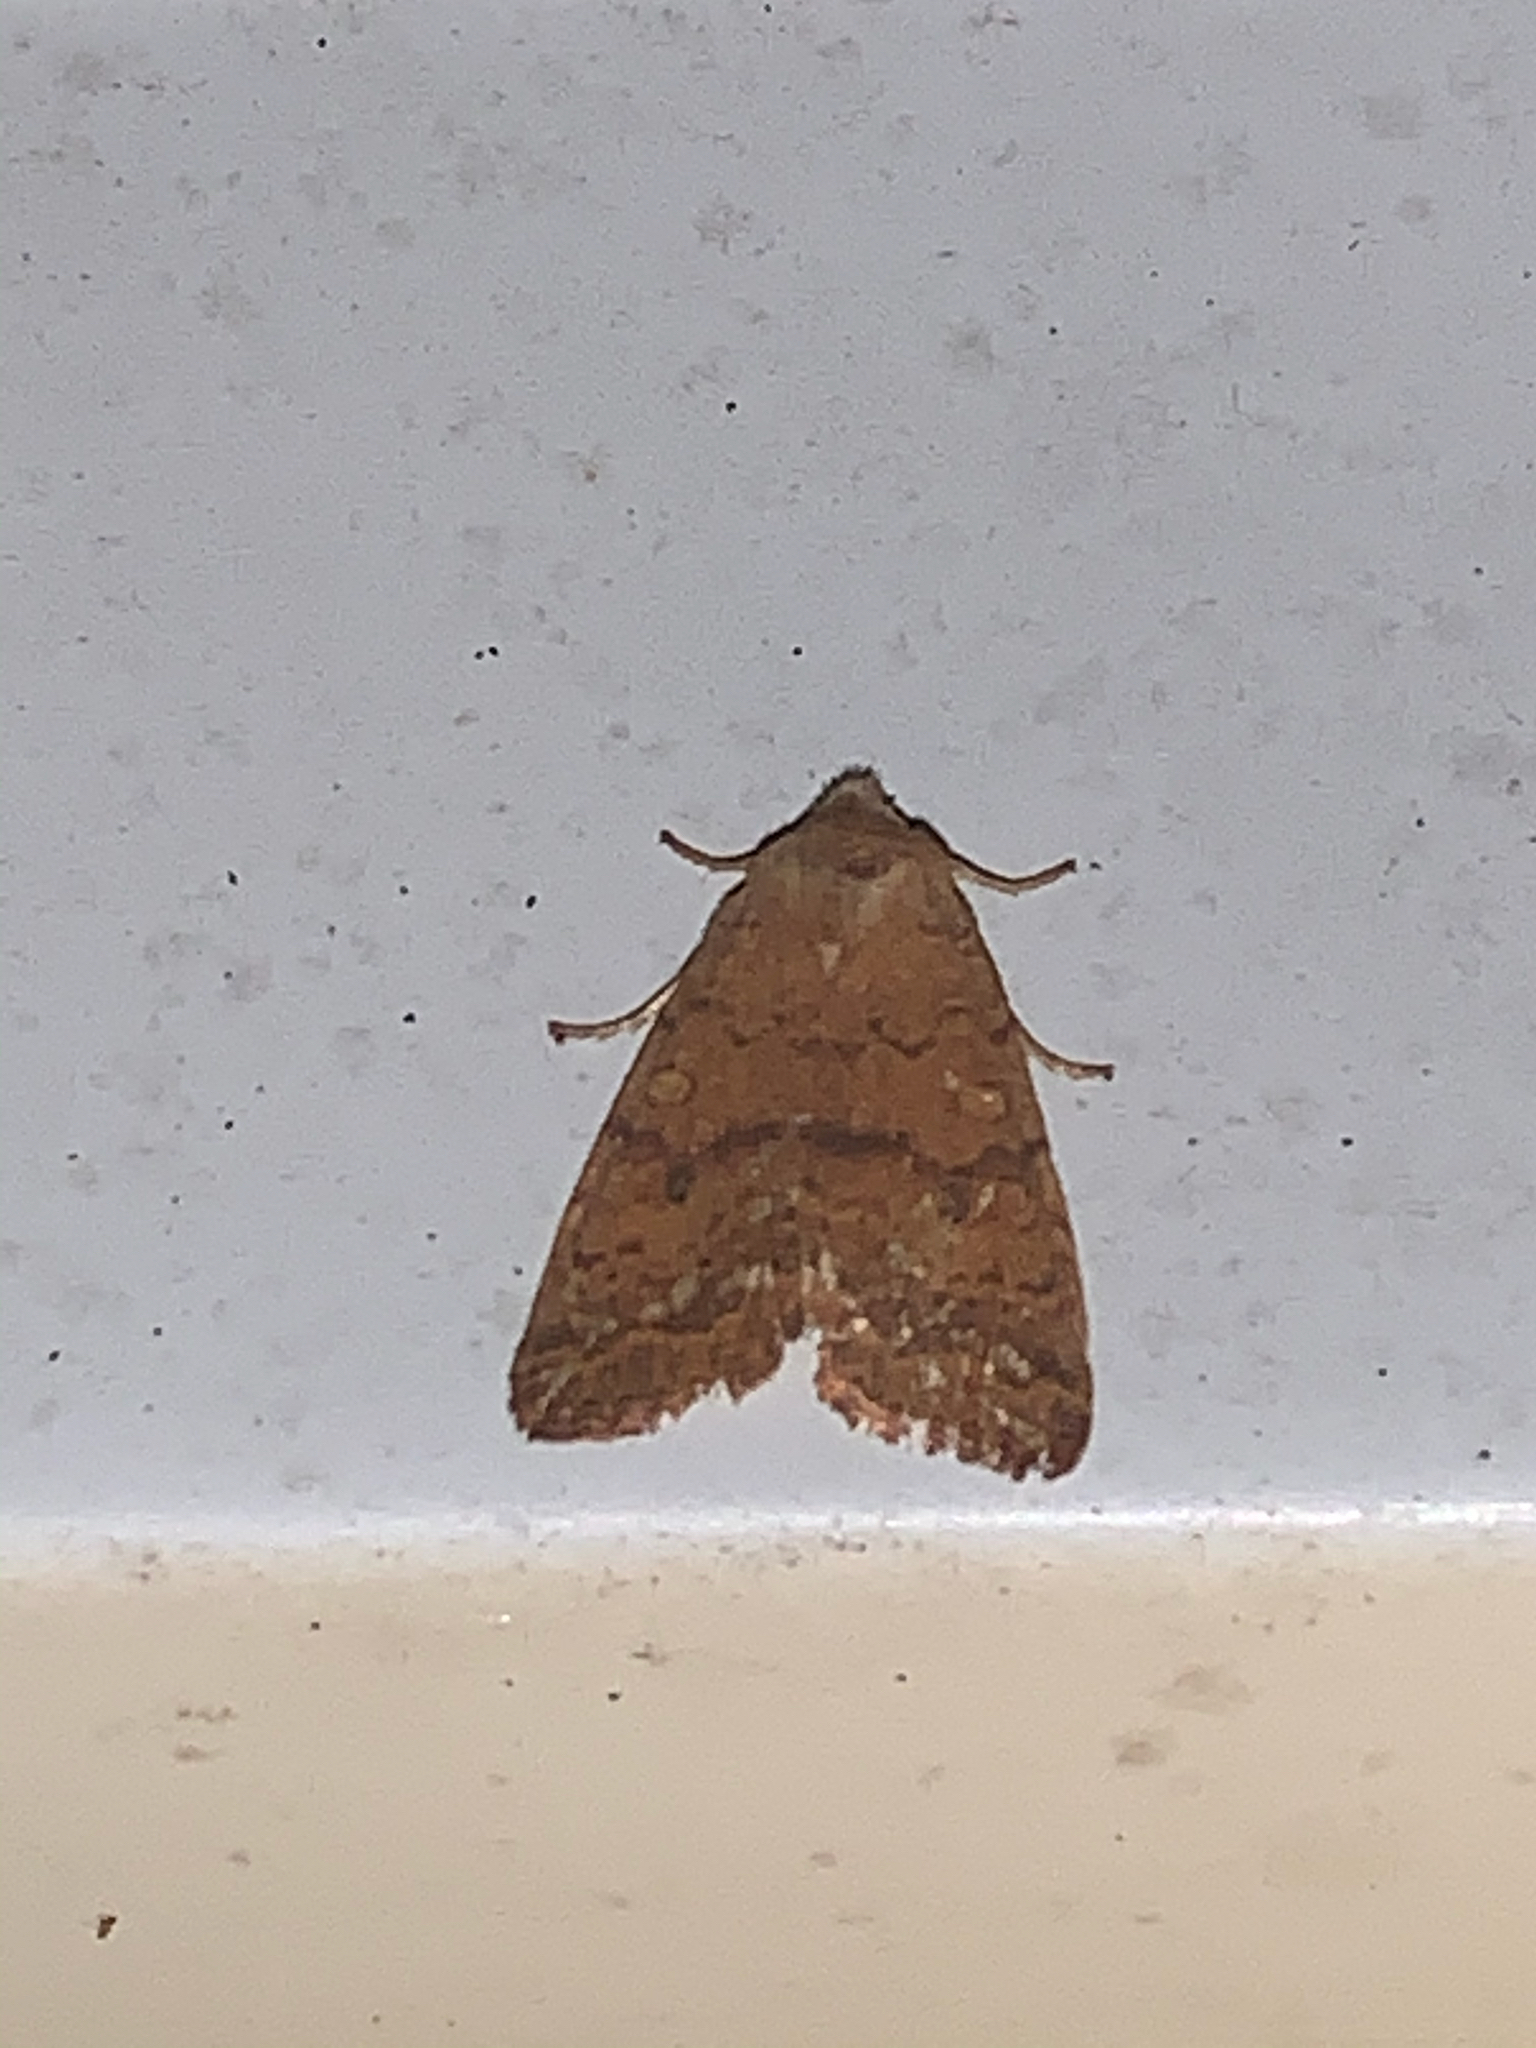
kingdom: Animalia
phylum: Arthropoda
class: Insecta
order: Lepidoptera
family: Noctuidae
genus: Agrochola
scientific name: Agrochola bicolorago
